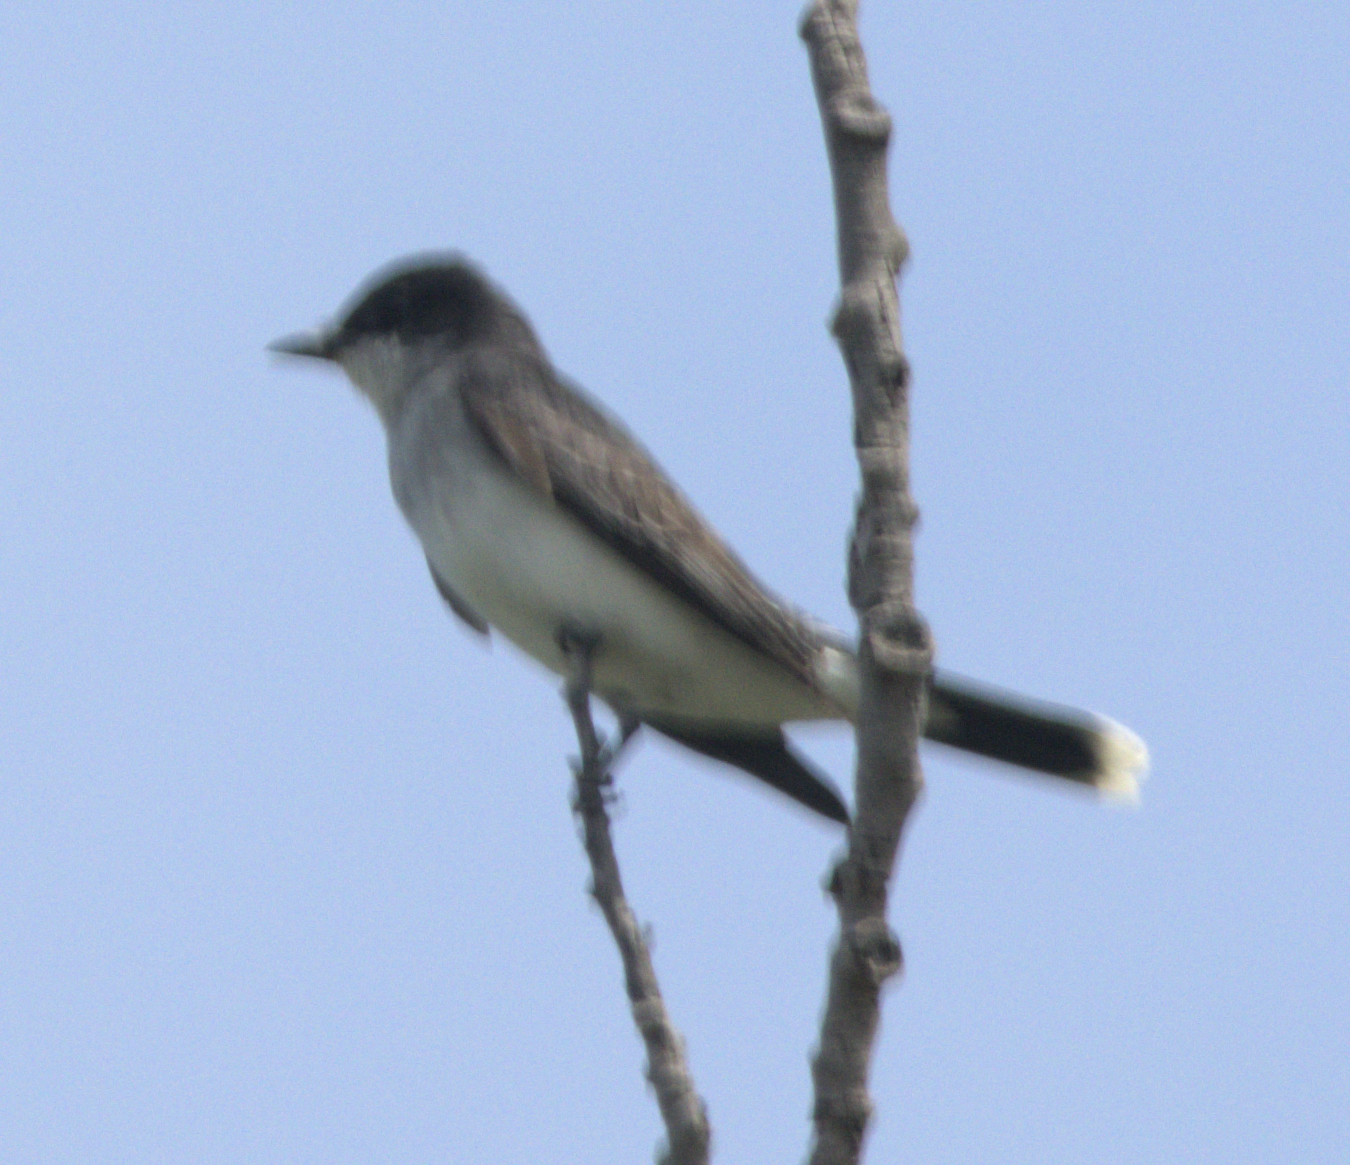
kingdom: Animalia
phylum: Chordata
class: Aves
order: Passeriformes
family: Tyrannidae
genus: Tyrannus
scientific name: Tyrannus tyrannus
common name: Eastern kingbird
